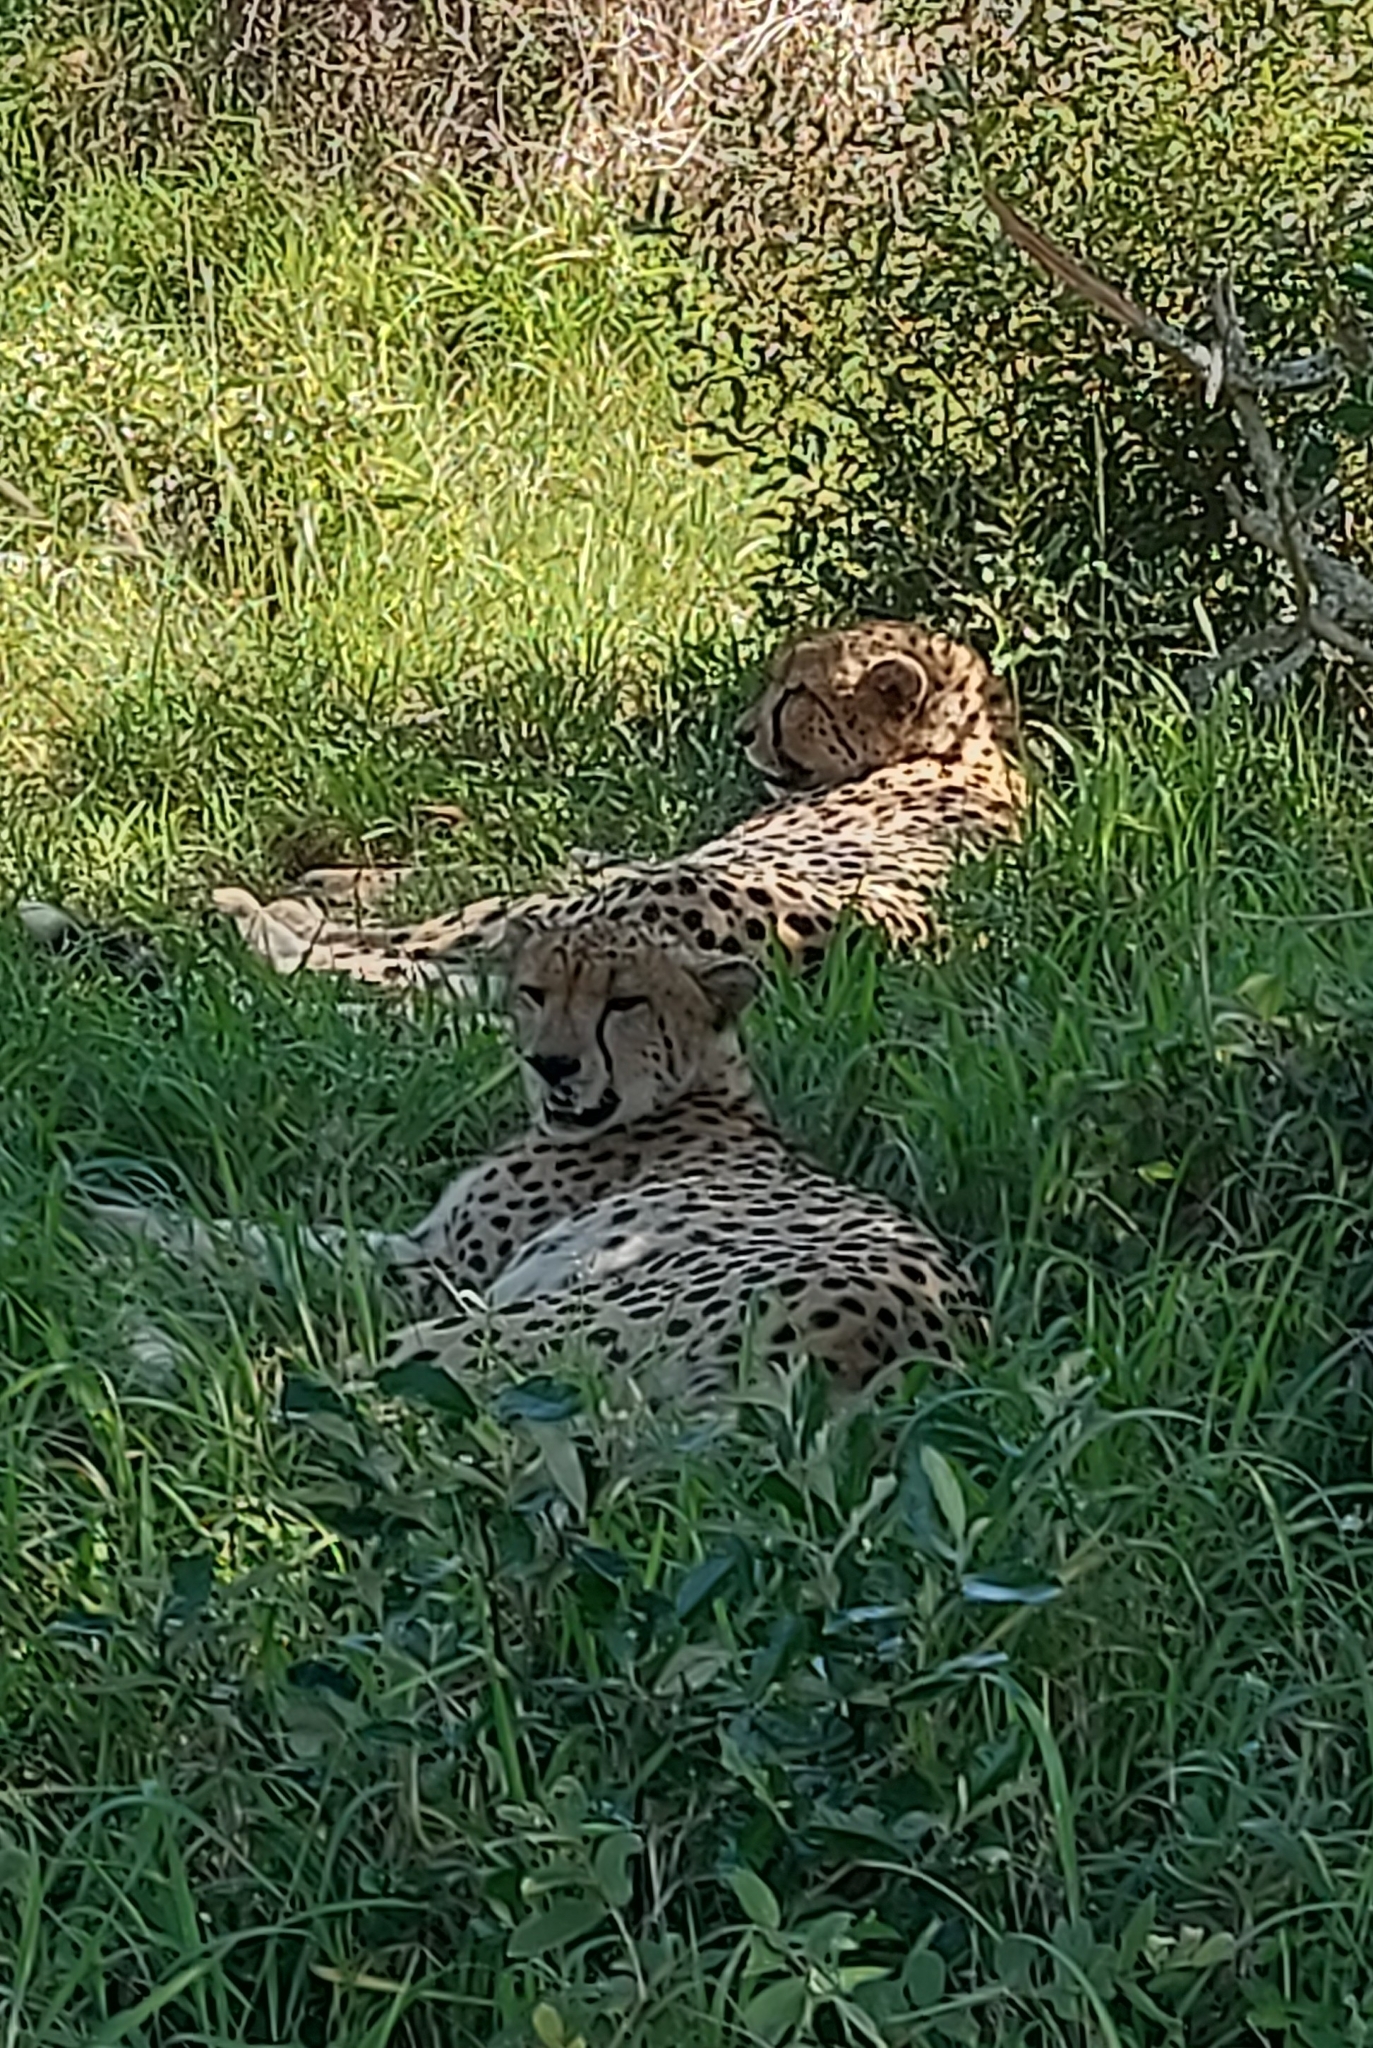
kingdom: Animalia
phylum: Chordata
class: Mammalia
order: Carnivora
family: Felidae
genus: Acinonyx
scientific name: Acinonyx jubatus
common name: Cheetah
